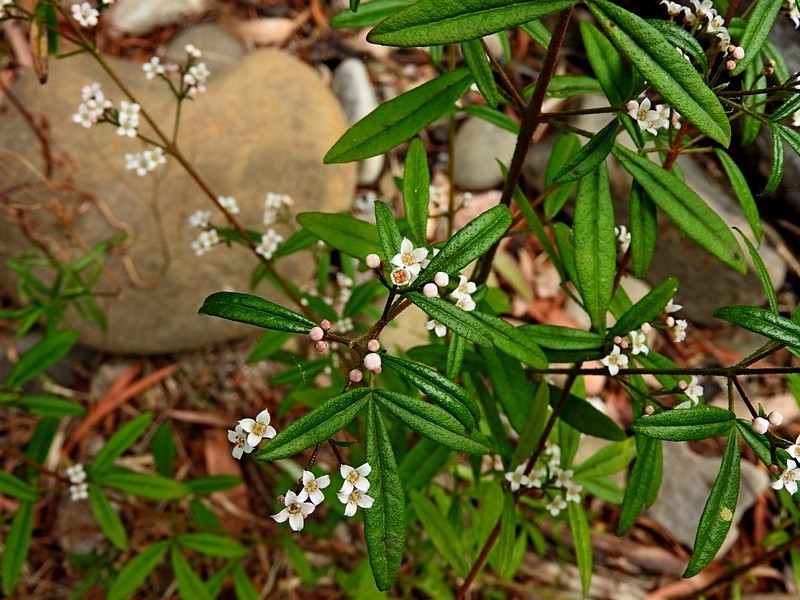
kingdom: Plantae
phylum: Tracheophyta
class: Magnoliopsida
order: Sapindales
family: Rutaceae
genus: Zieria
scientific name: Zieria smithii
